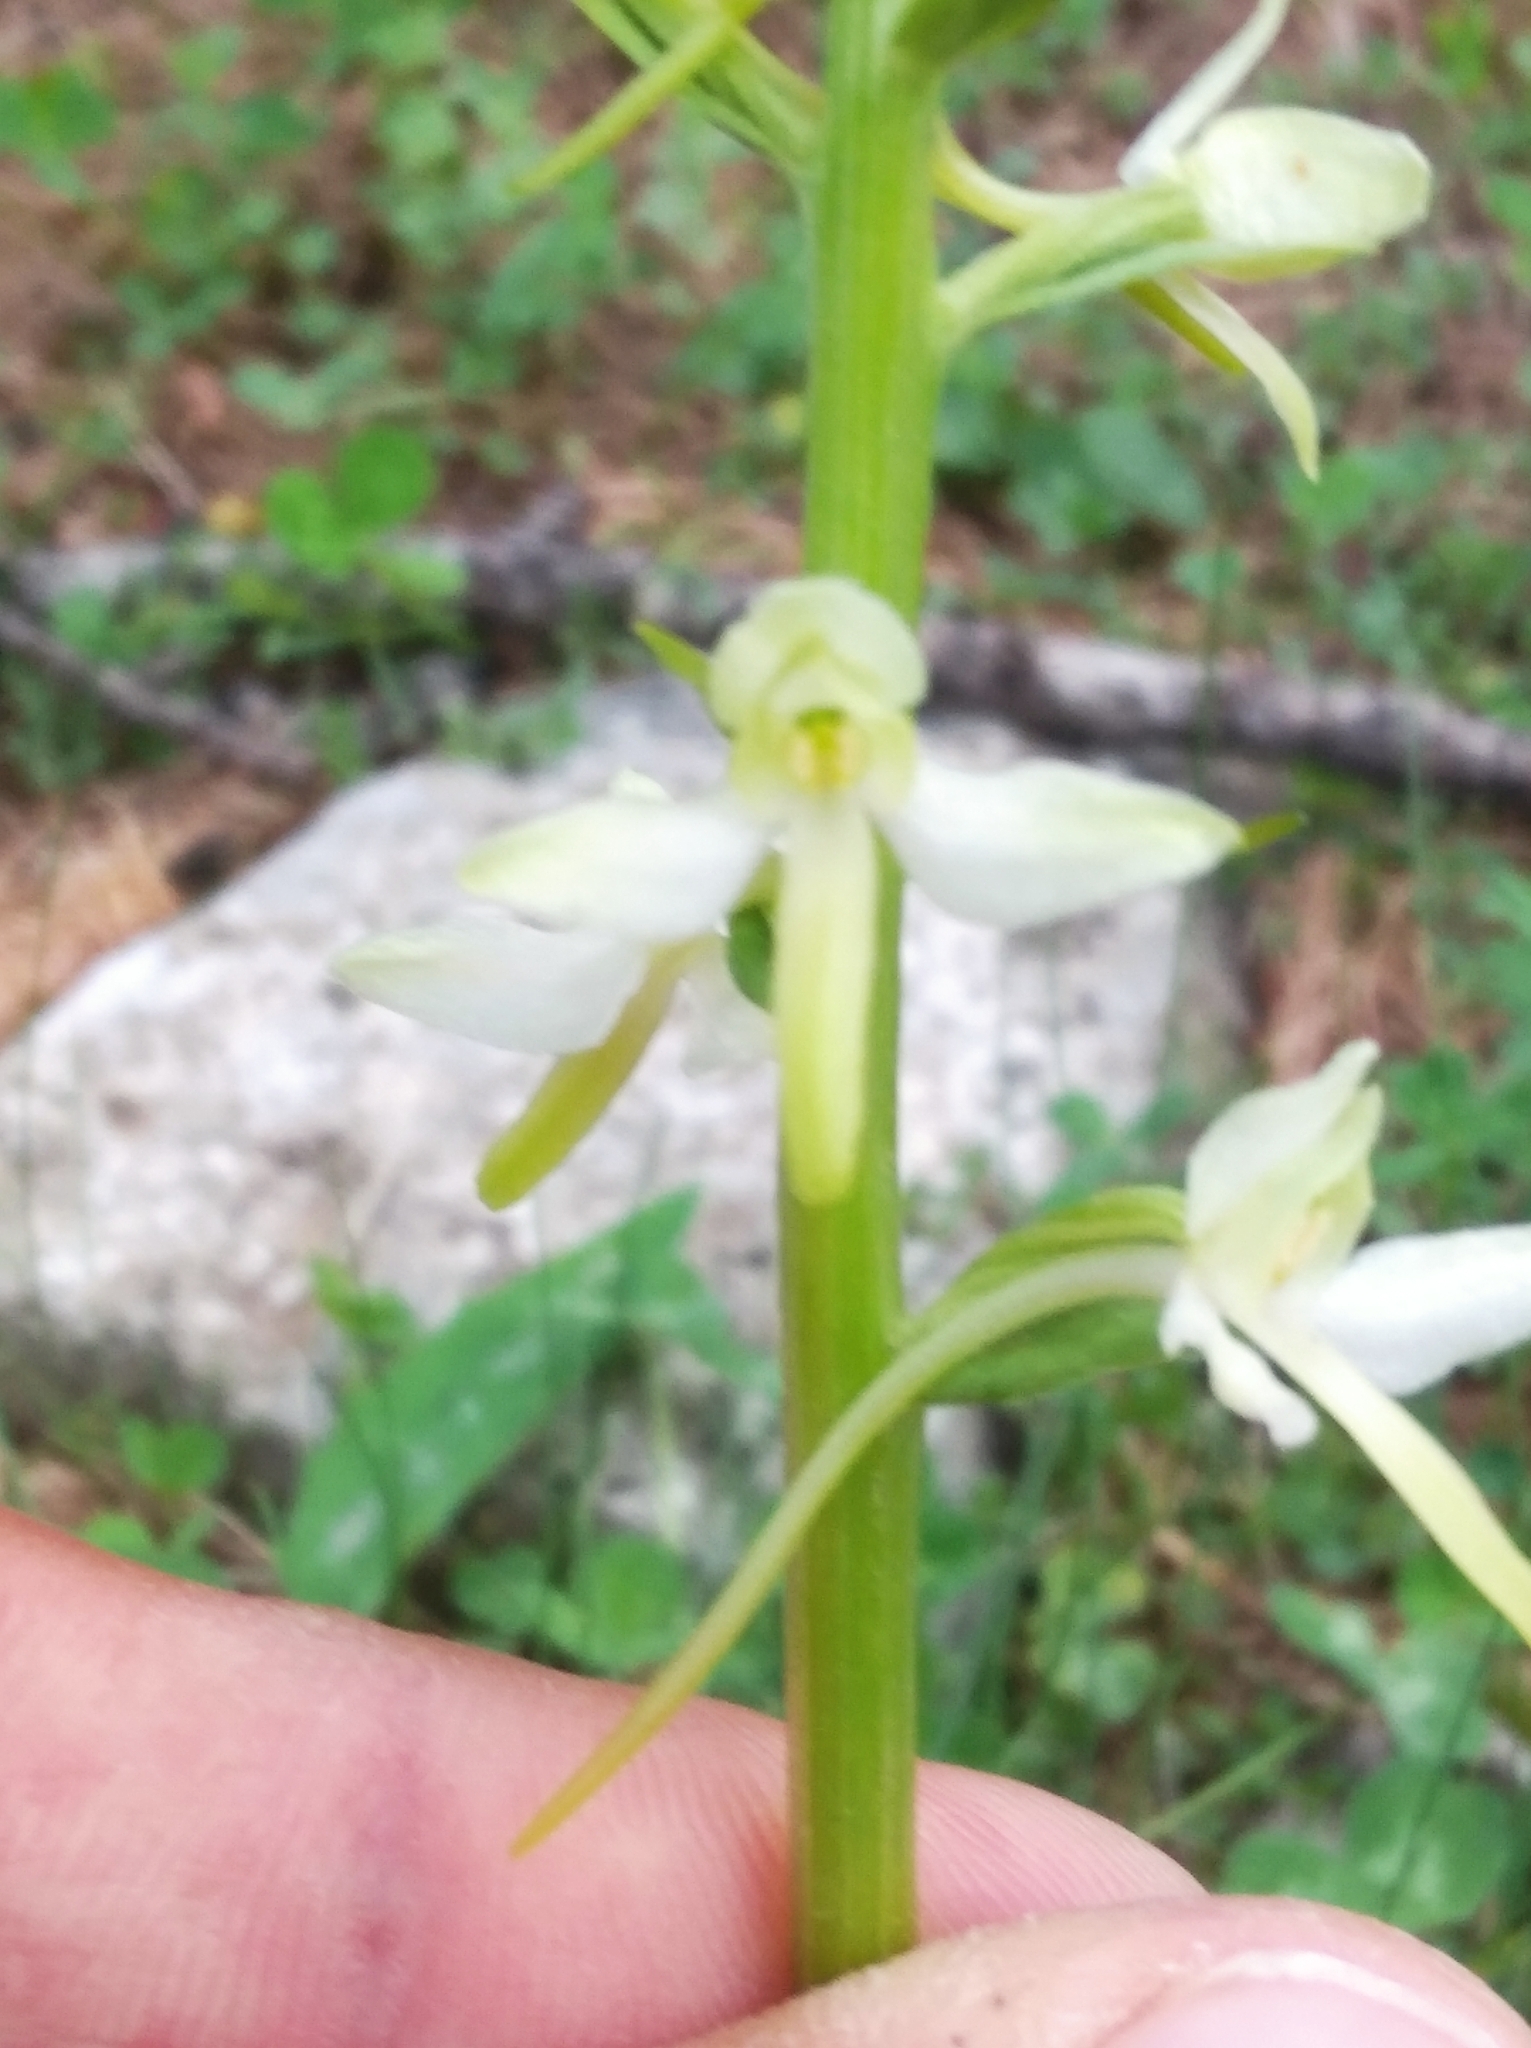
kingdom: Plantae
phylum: Tracheophyta
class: Liliopsida
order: Asparagales
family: Orchidaceae
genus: Platanthera
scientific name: Platanthera bifolia
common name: Lesser butterfly-orchid
